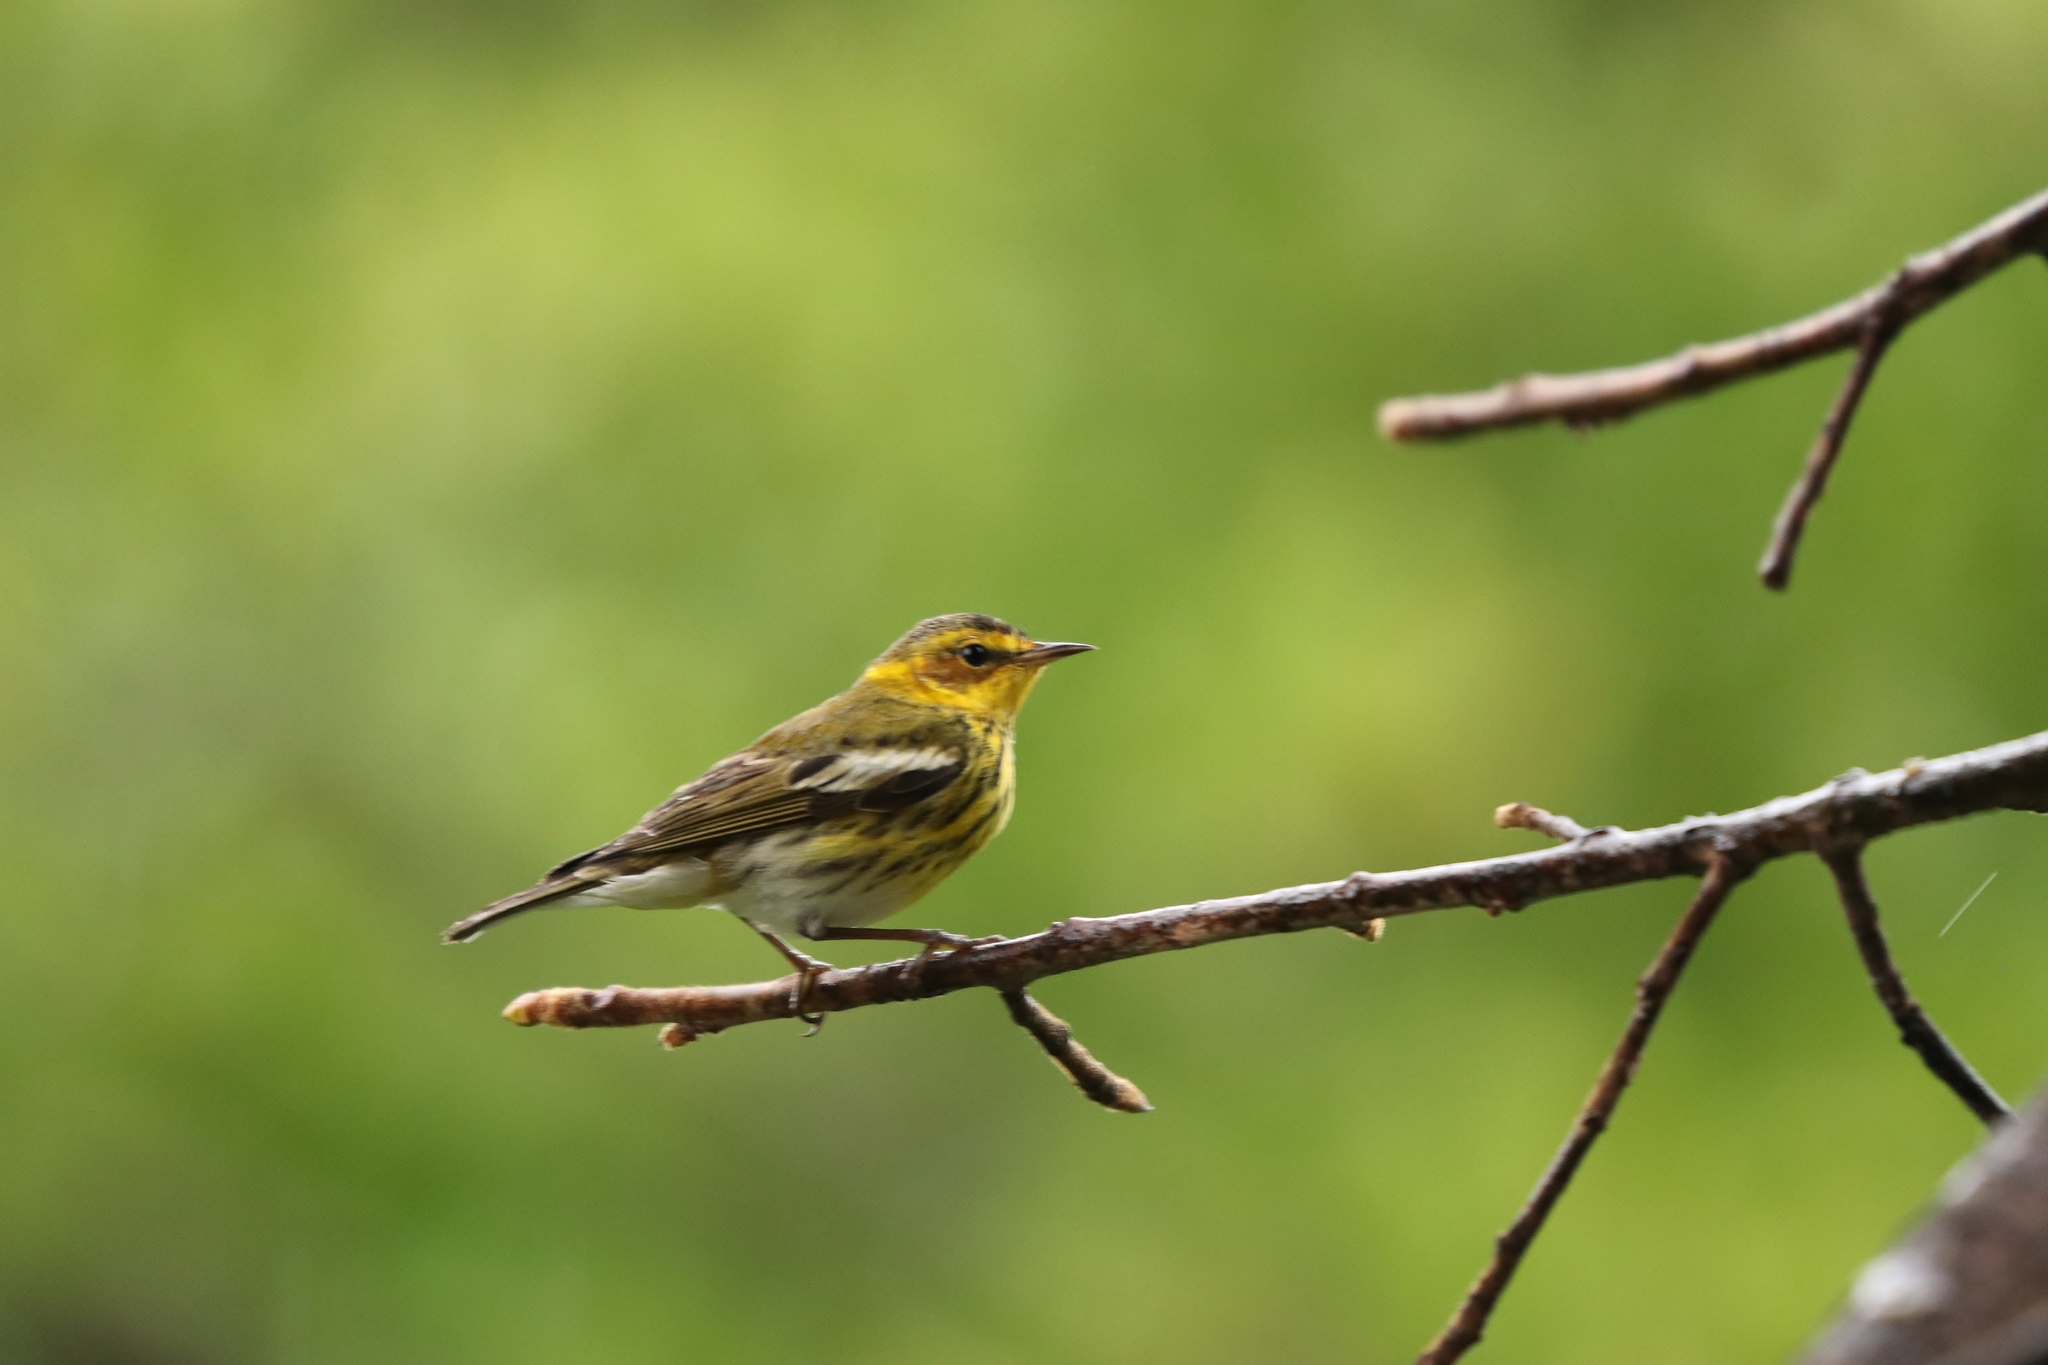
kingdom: Animalia
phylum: Chordata
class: Aves
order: Passeriformes
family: Parulidae
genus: Setophaga
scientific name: Setophaga tigrina
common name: Cape may warbler
